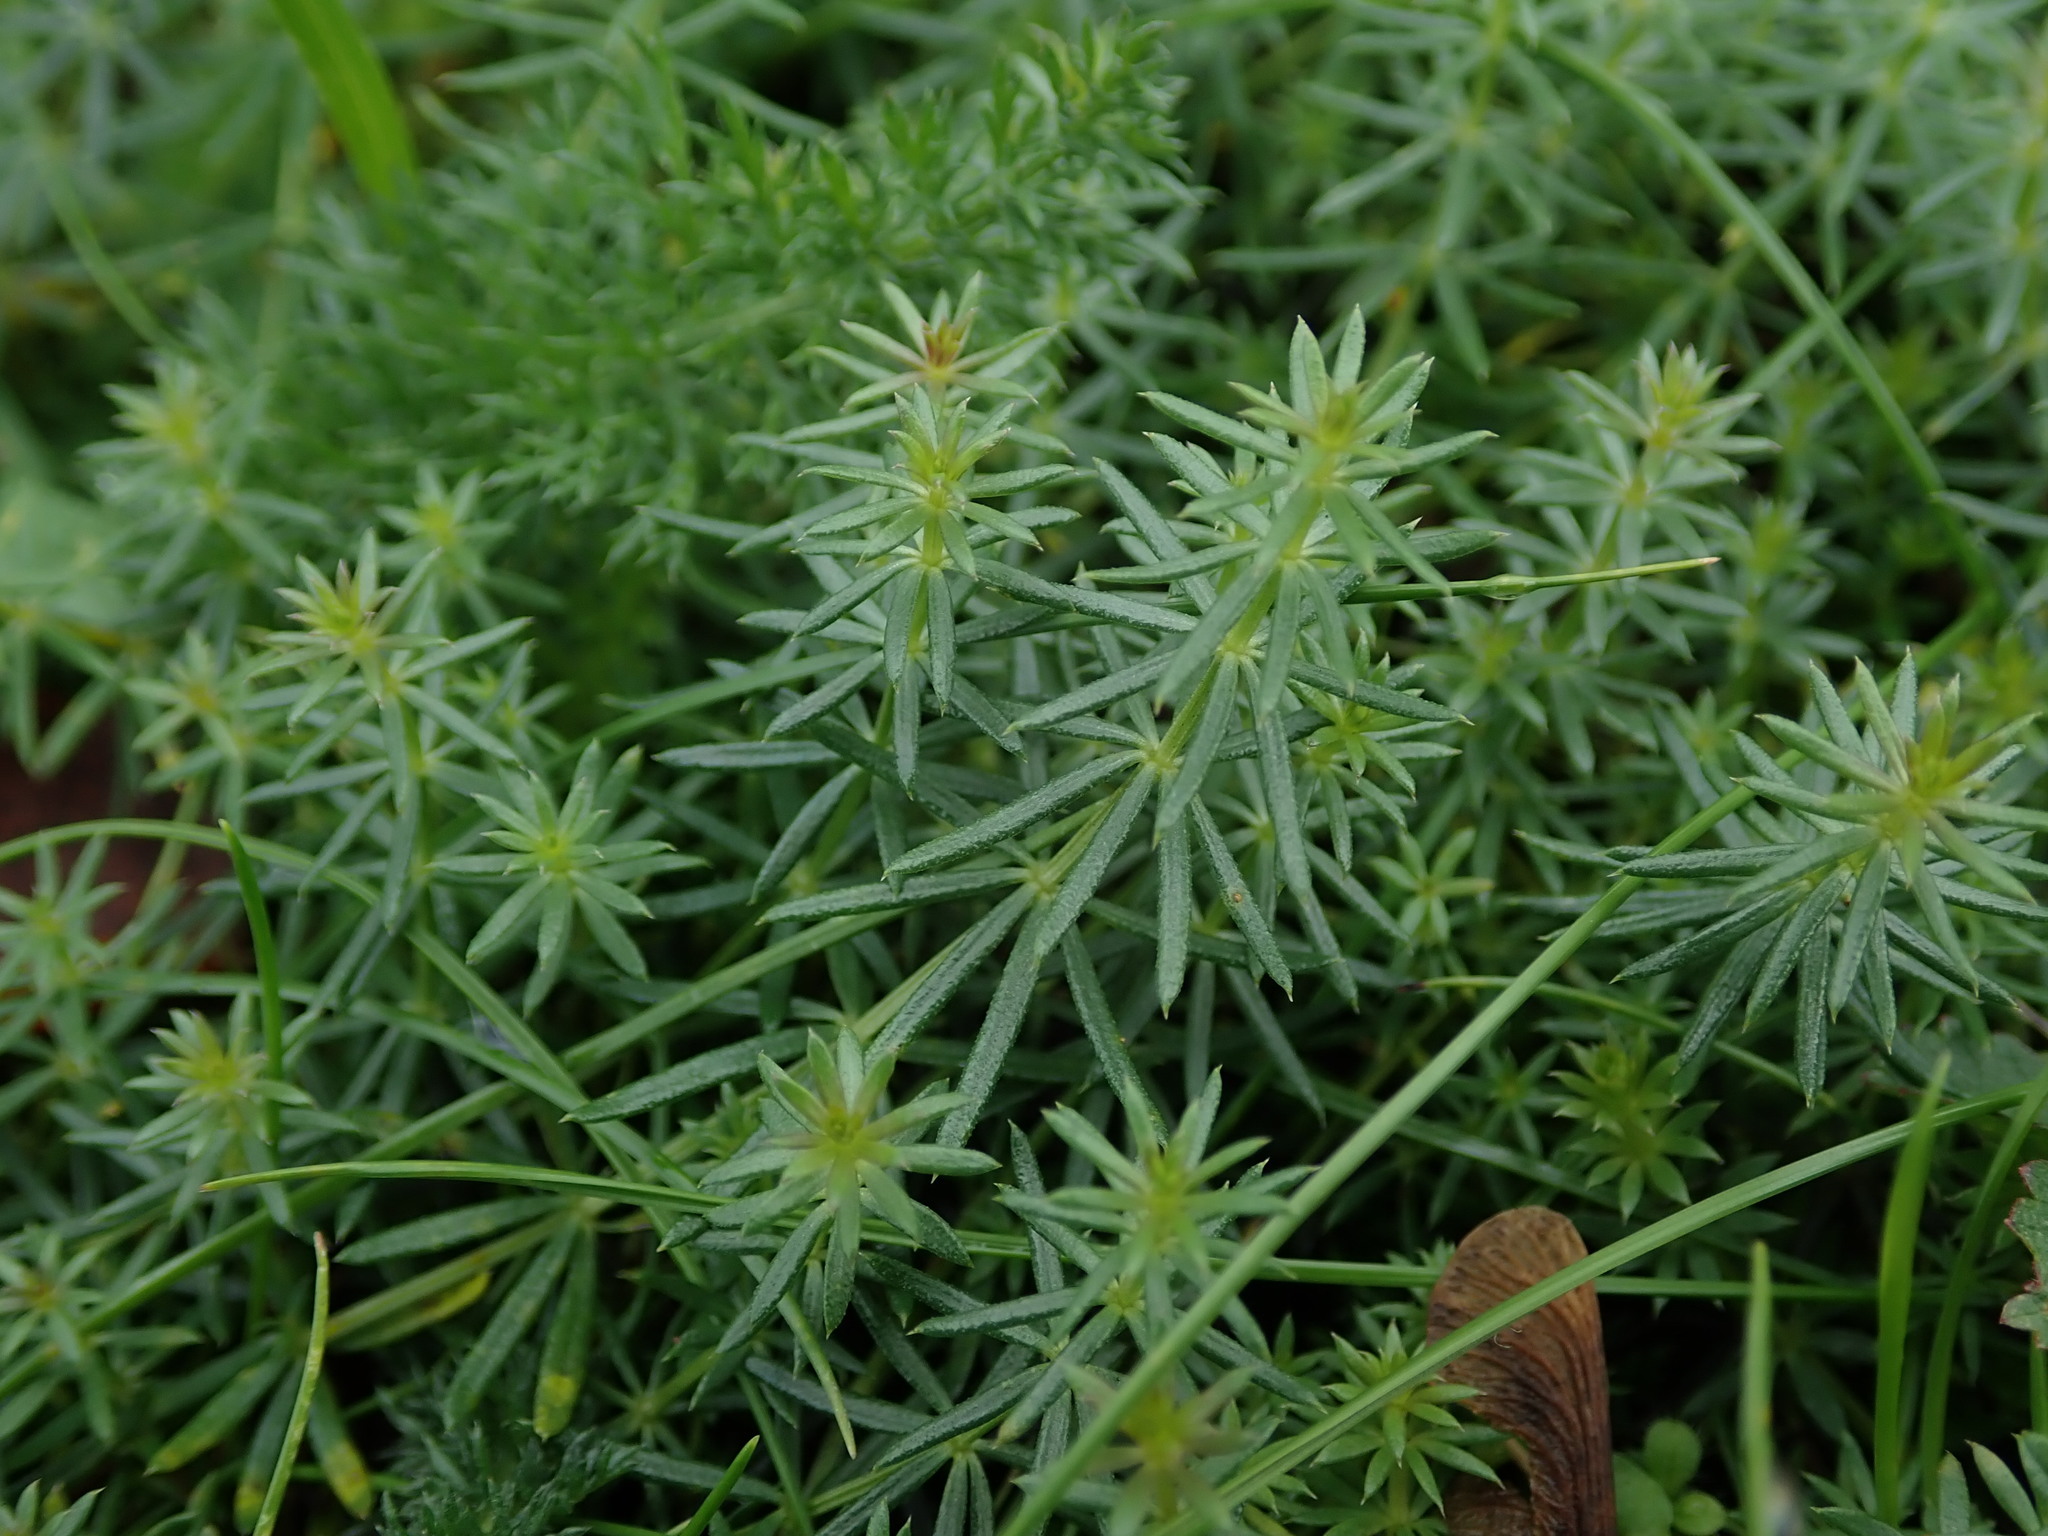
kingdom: Plantae
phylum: Tracheophyta
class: Magnoliopsida
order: Gentianales
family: Rubiaceae
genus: Galium
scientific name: Galium verum
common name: Lady's bedstraw
